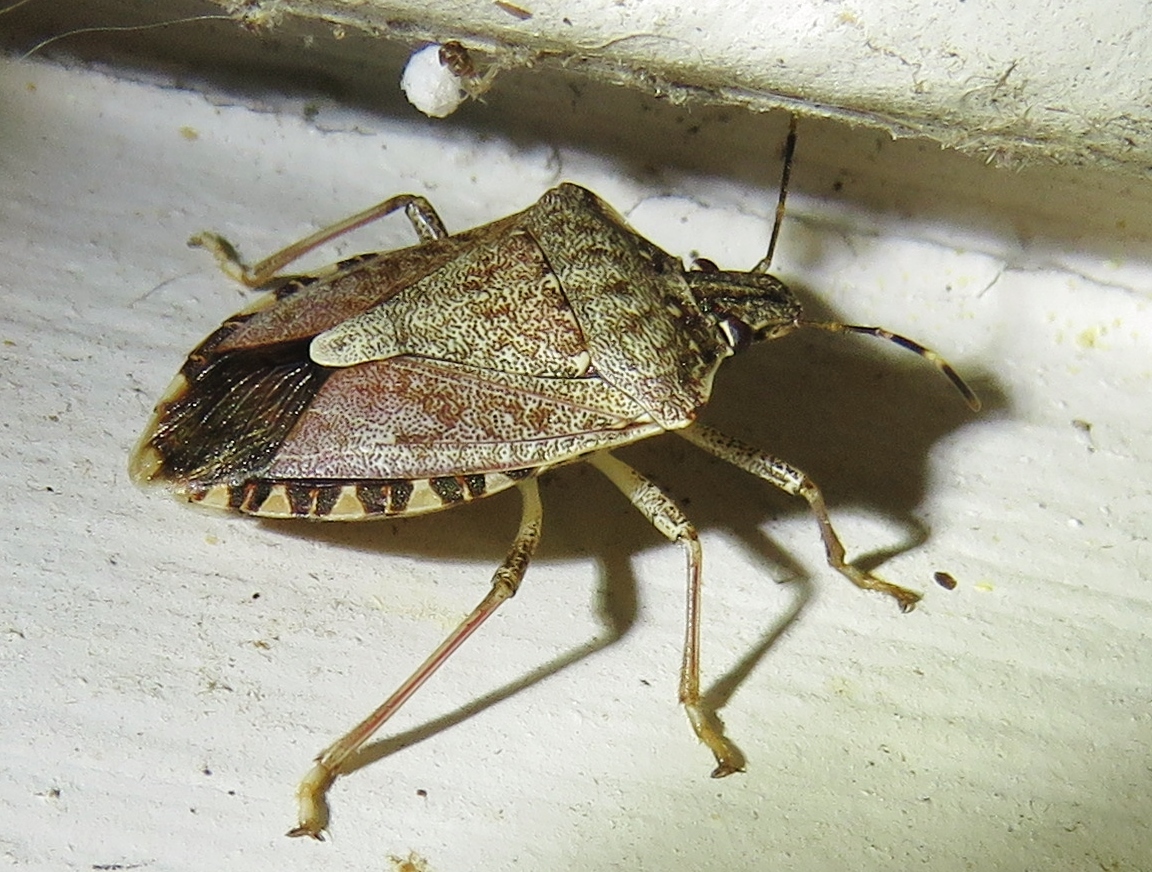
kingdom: Animalia
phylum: Arthropoda
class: Insecta
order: Hemiptera
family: Pentatomidae
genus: Halyomorpha
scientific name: Halyomorpha halys
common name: Brown marmorated stink bug
